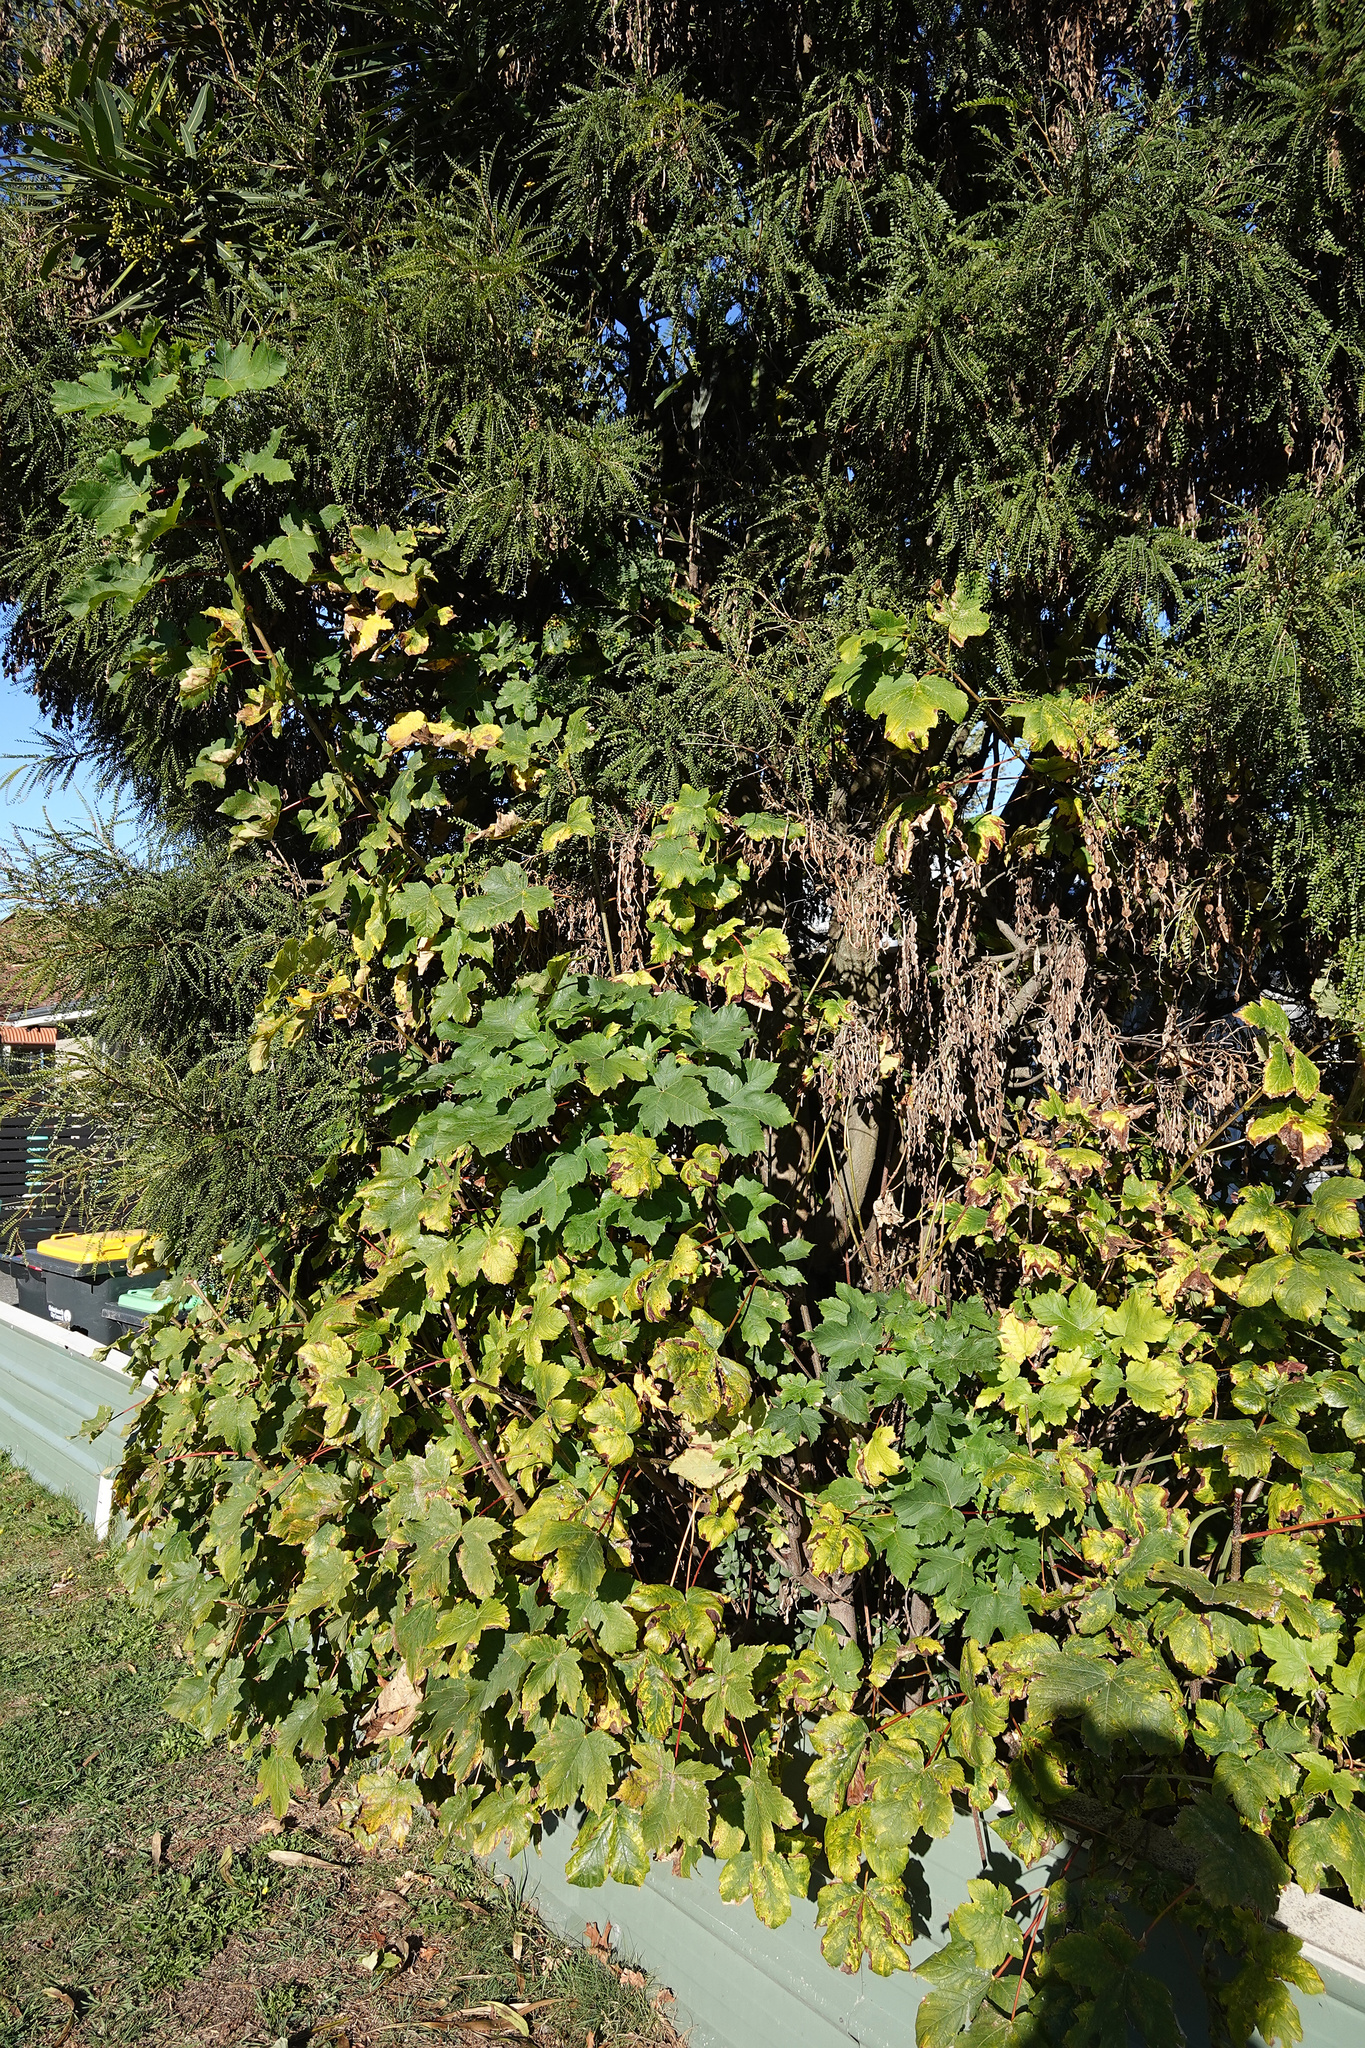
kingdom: Plantae
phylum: Tracheophyta
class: Magnoliopsida
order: Sapindales
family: Sapindaceae
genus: Acer
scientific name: Acer pseudoplatanus
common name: Sycamore
